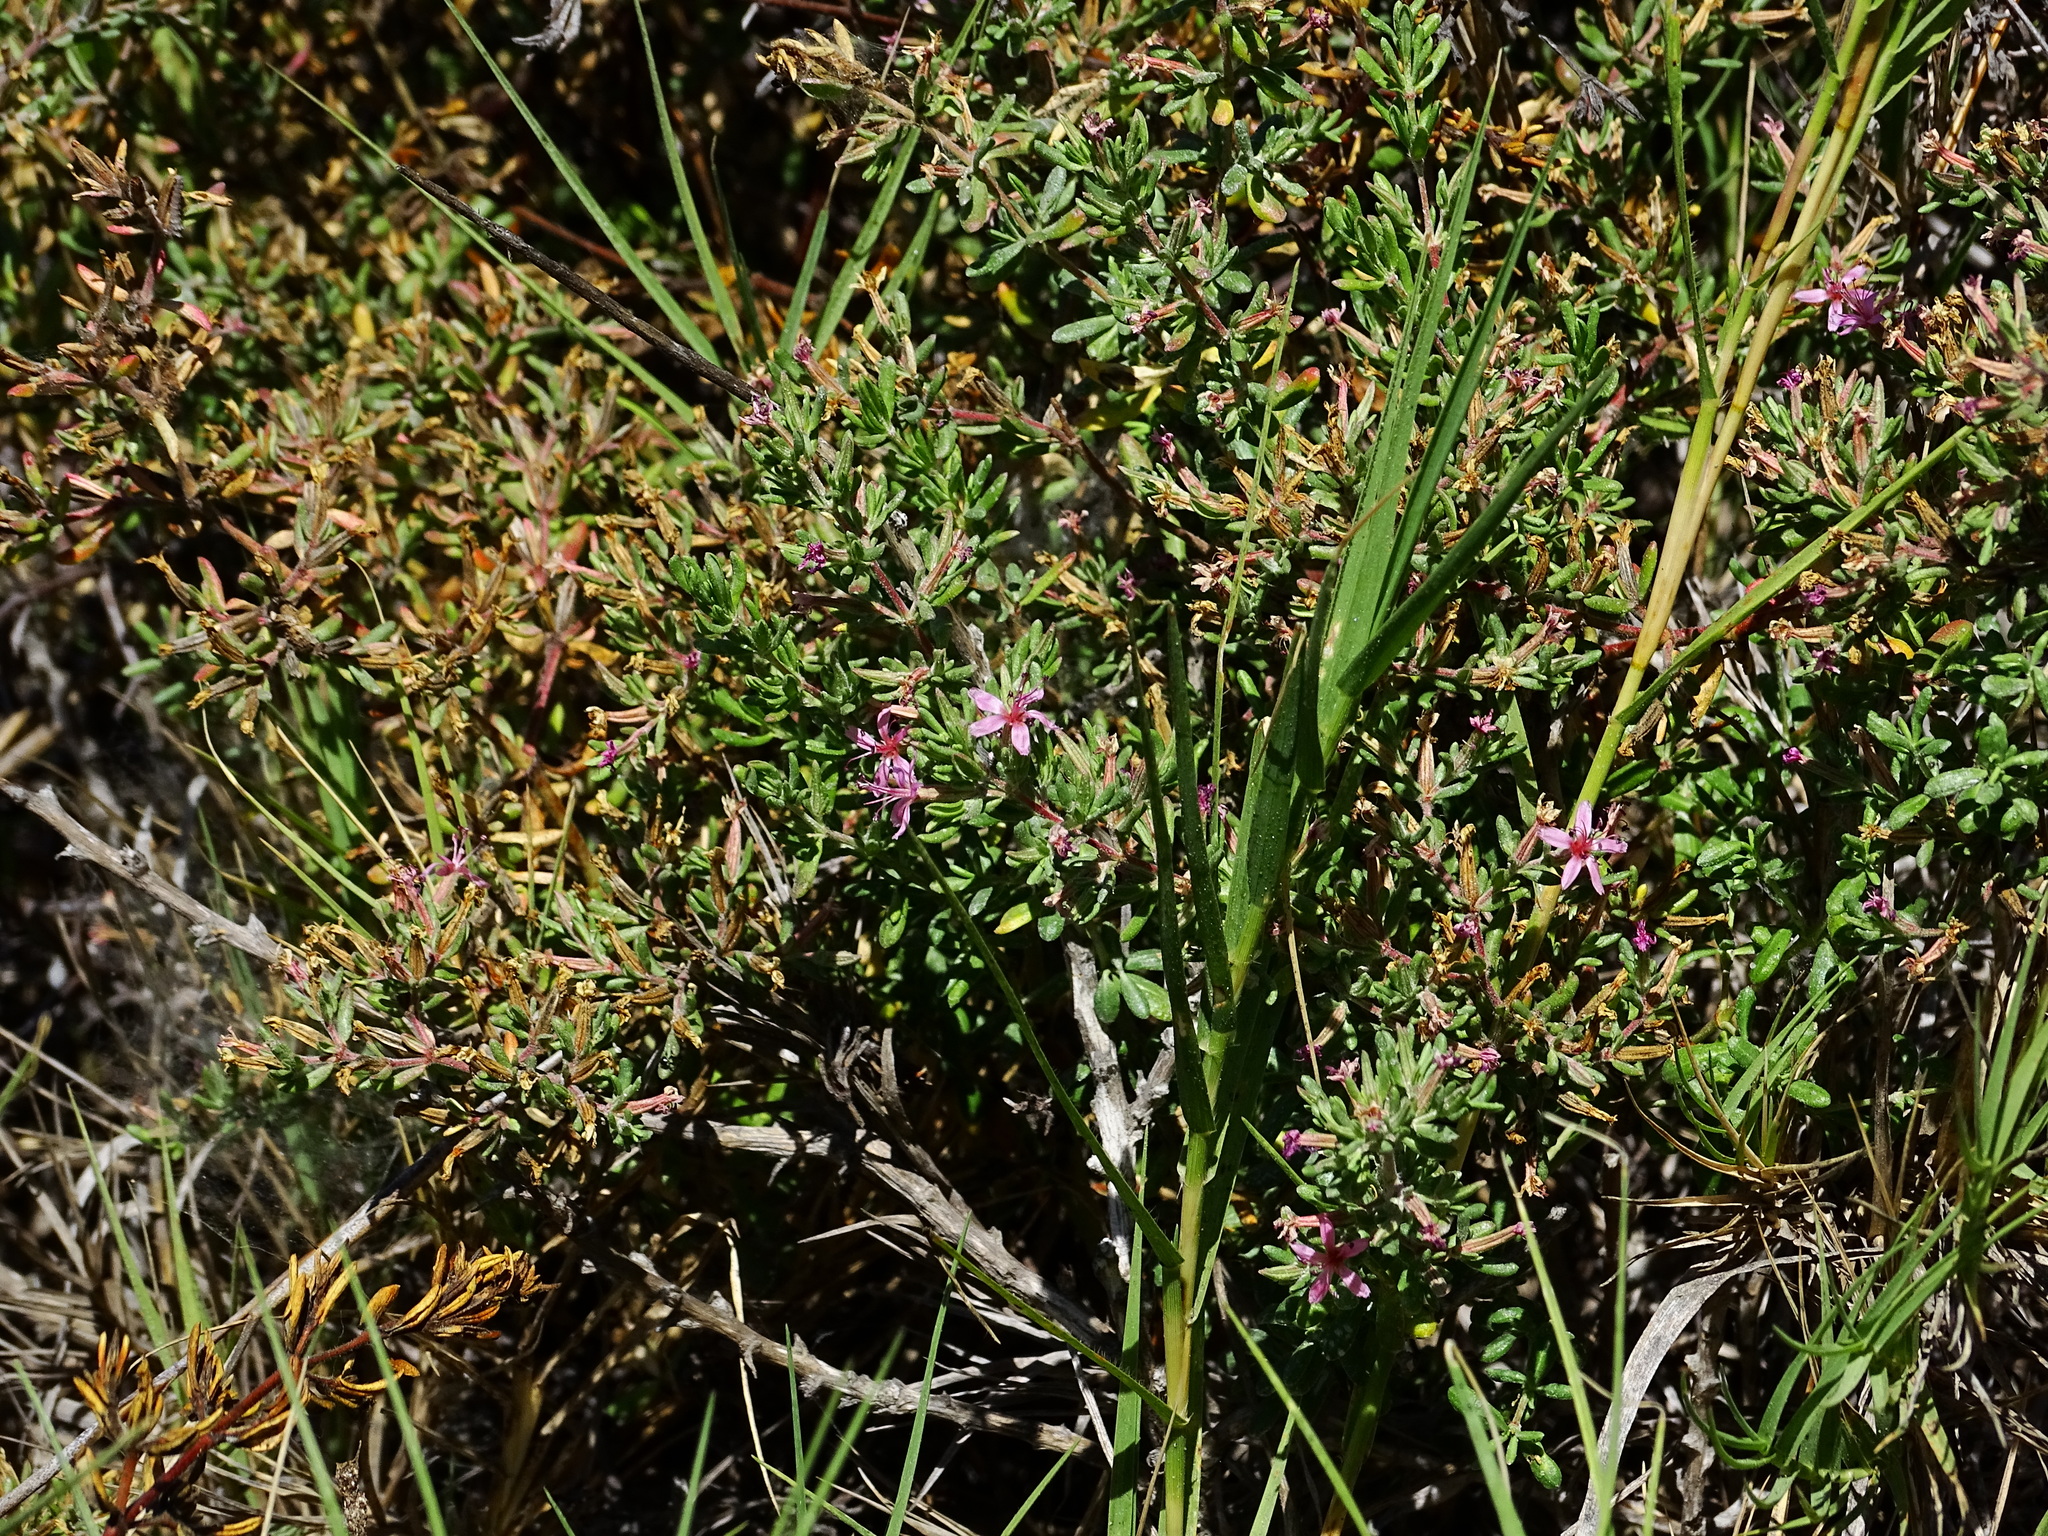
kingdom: Plantae
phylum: Tracheophyta
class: Magnoliopsida
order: Caryophyllales
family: Frankeniaceae
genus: Frankenia
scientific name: Frankenia salina
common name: Alkali seaheath
